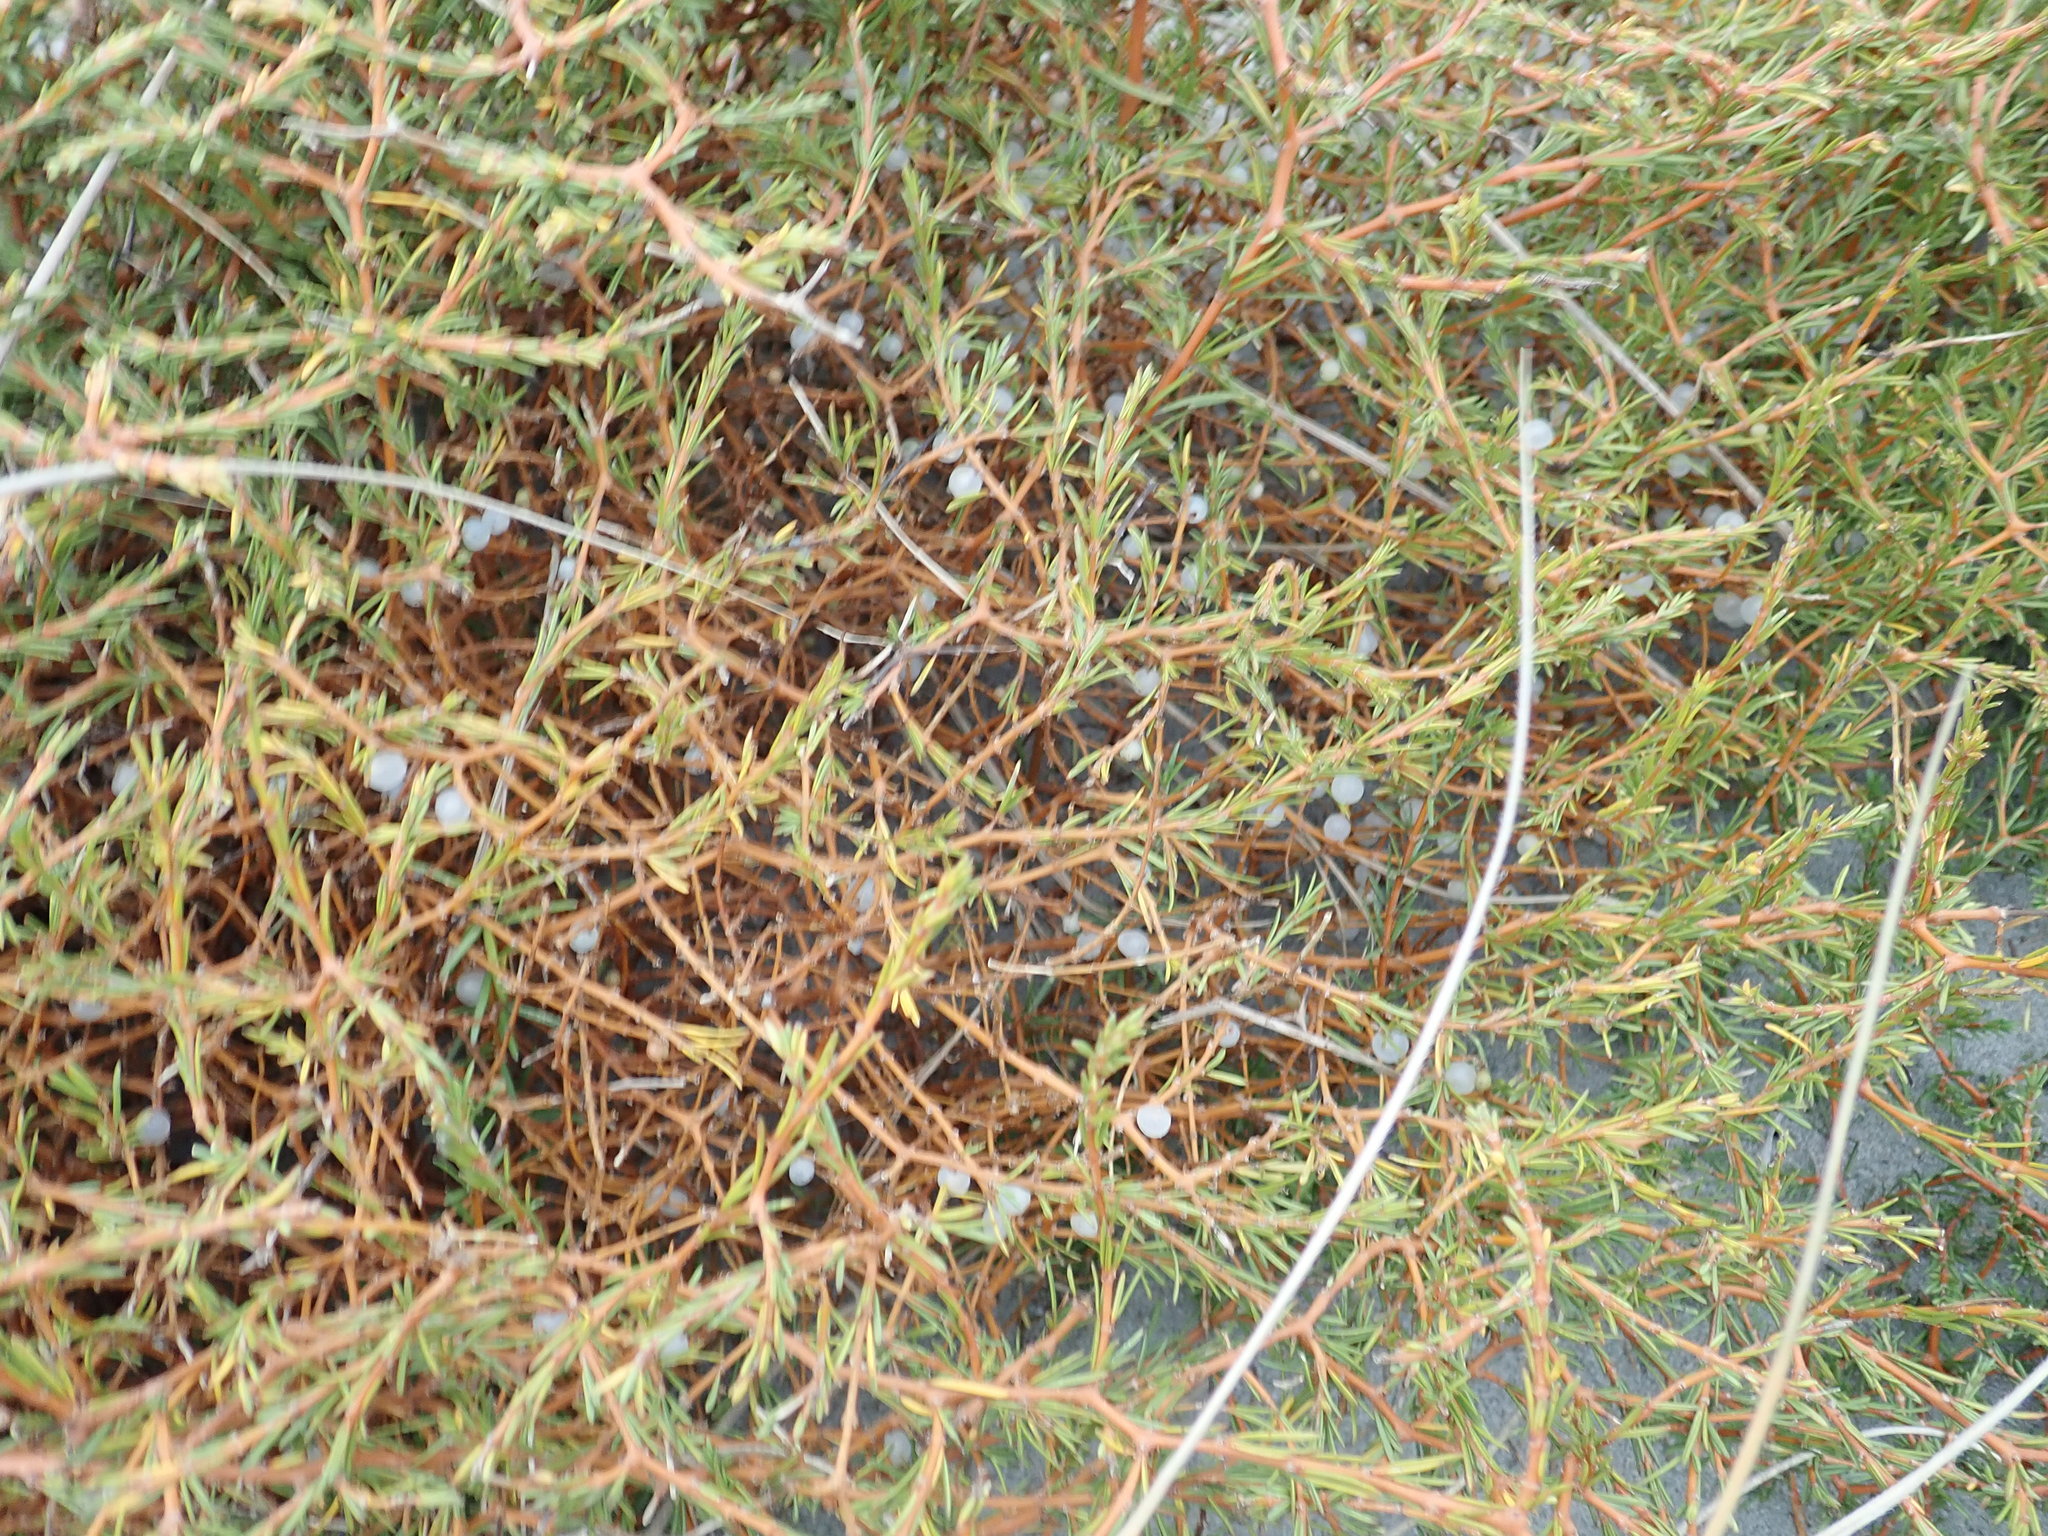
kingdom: Plantae
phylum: Tracheophyta
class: Magnoliopsida
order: Gentianales
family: Rubiaceae
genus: Coprosma
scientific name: Coprosma acerosa
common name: Sand coprosma
